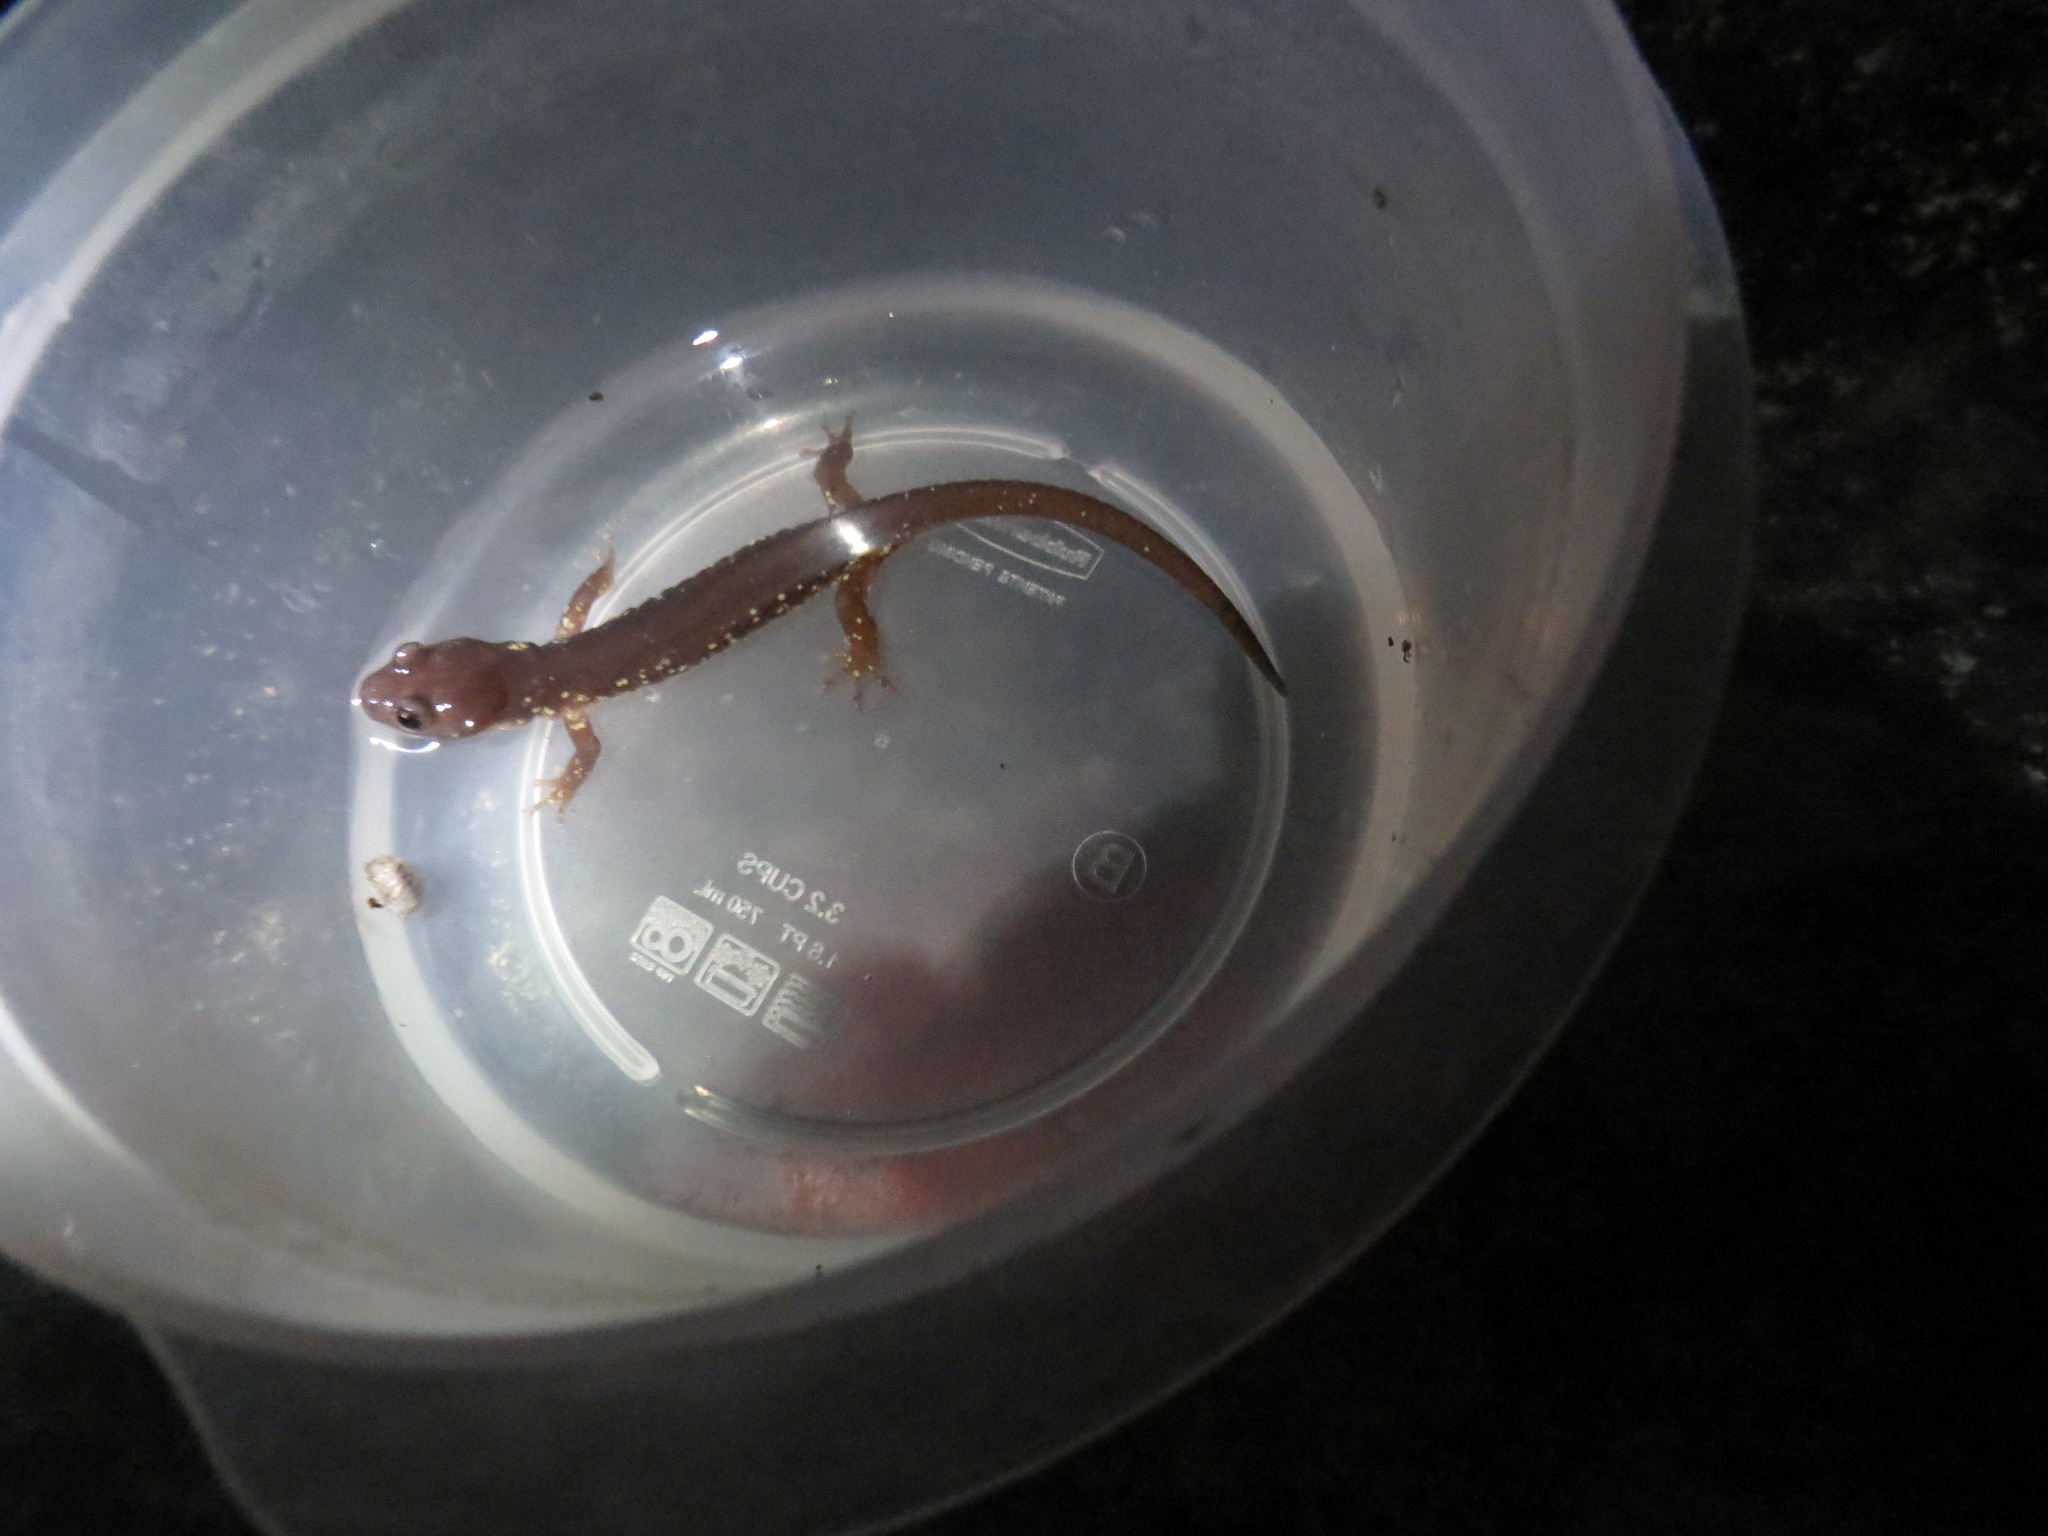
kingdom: Animalia
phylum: Chordata
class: Amphibia
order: Caudata
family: Plethodontidae
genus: Aneides
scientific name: Aneides lugubris
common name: Arboreal salamander
